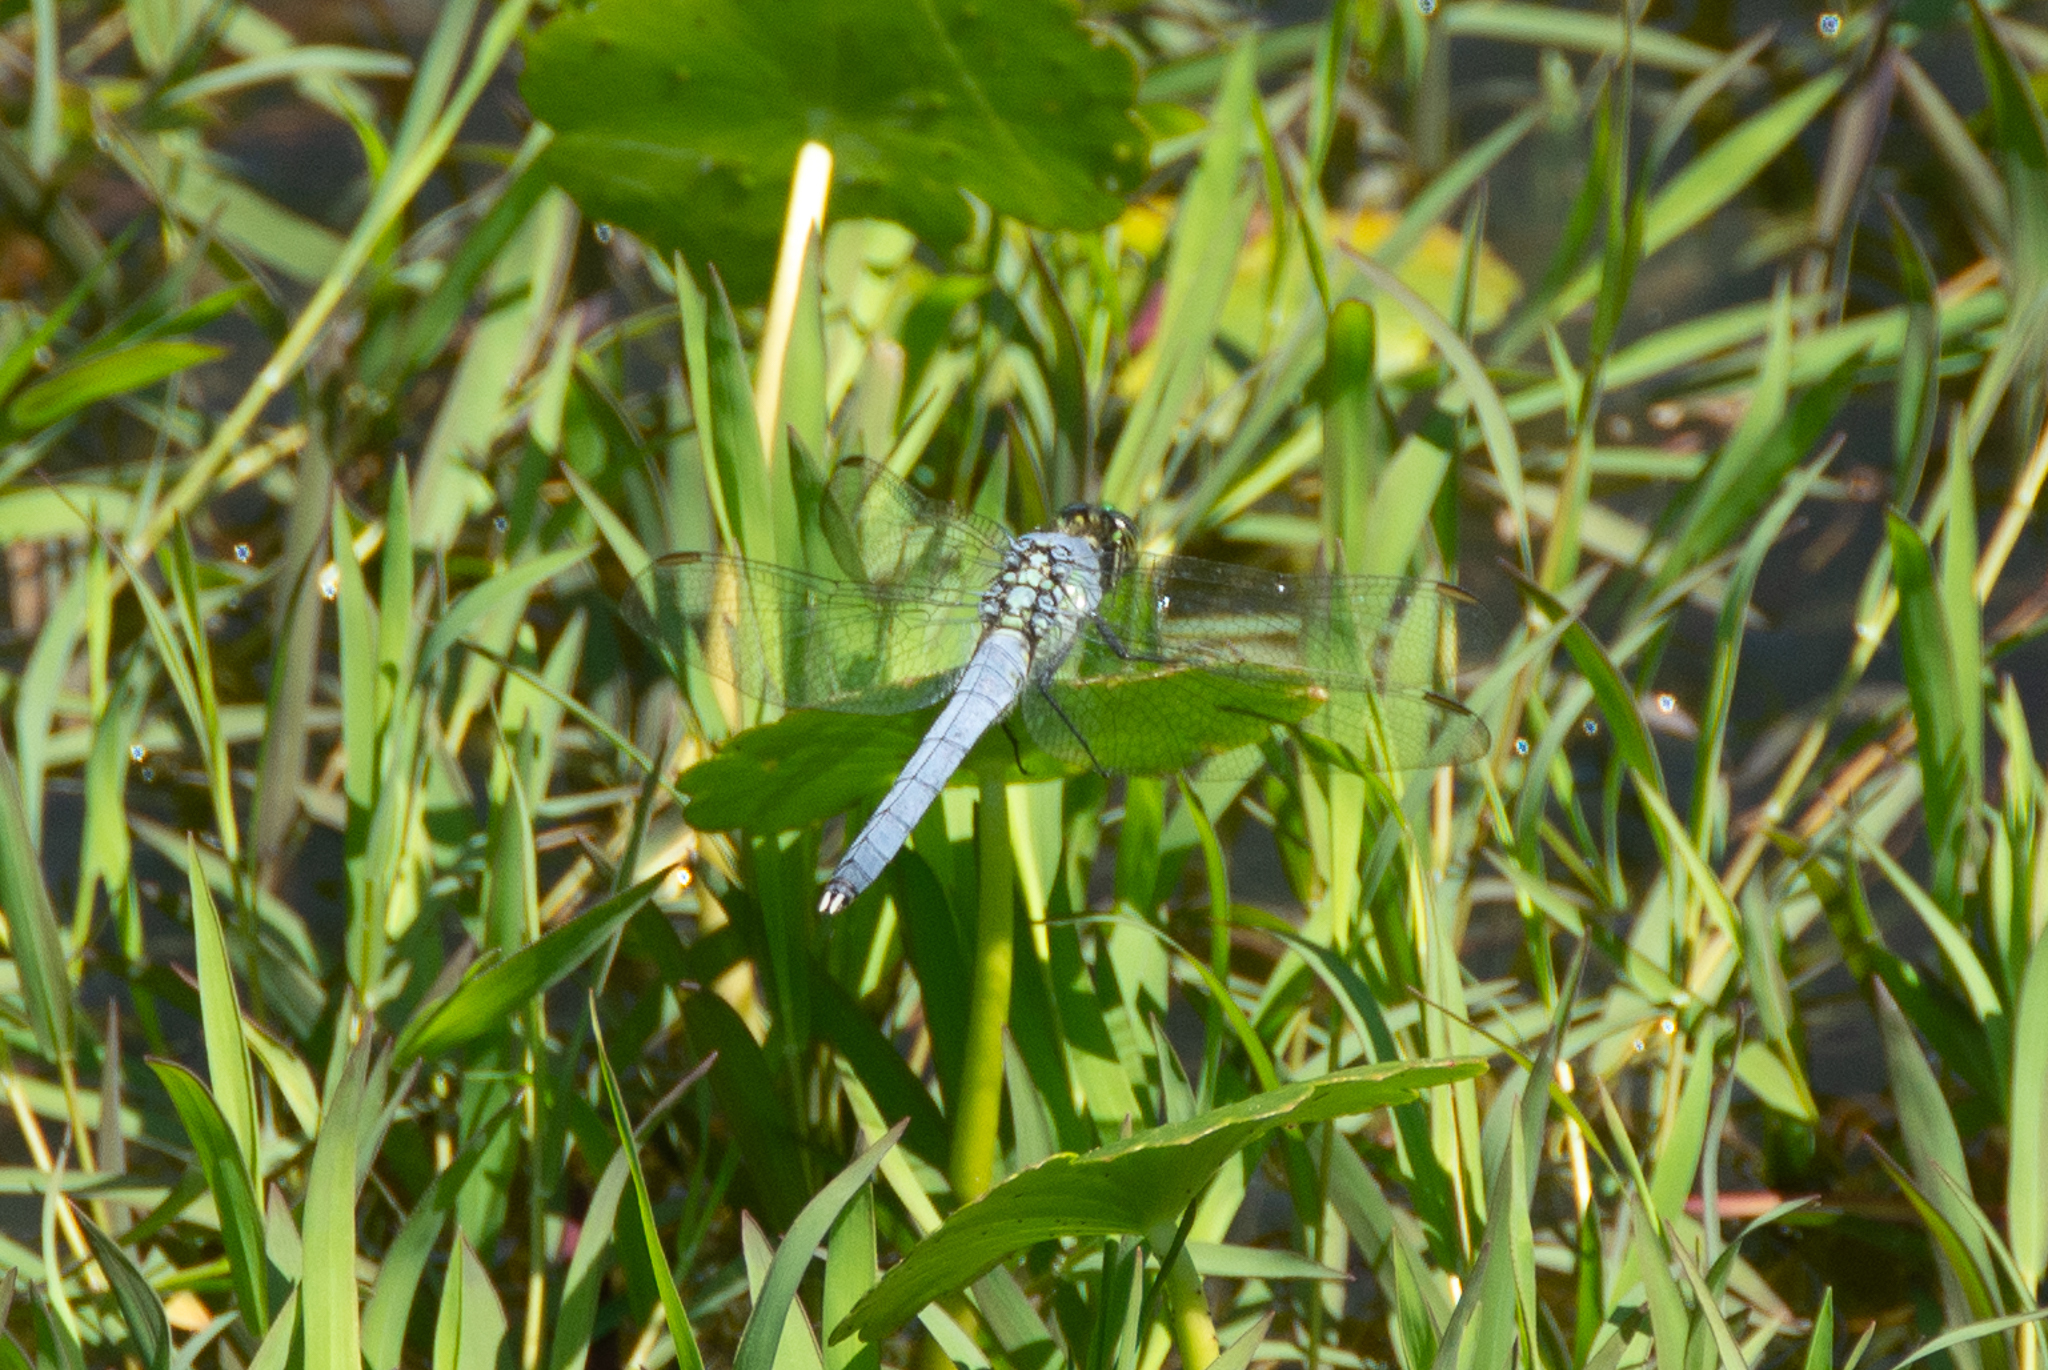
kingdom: Animalia
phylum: Arthropoda
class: Insecta
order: Odonata
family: Libellulidae
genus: Erythemis
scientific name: Erythemis simplicicollis
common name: Eastern pondhawk
